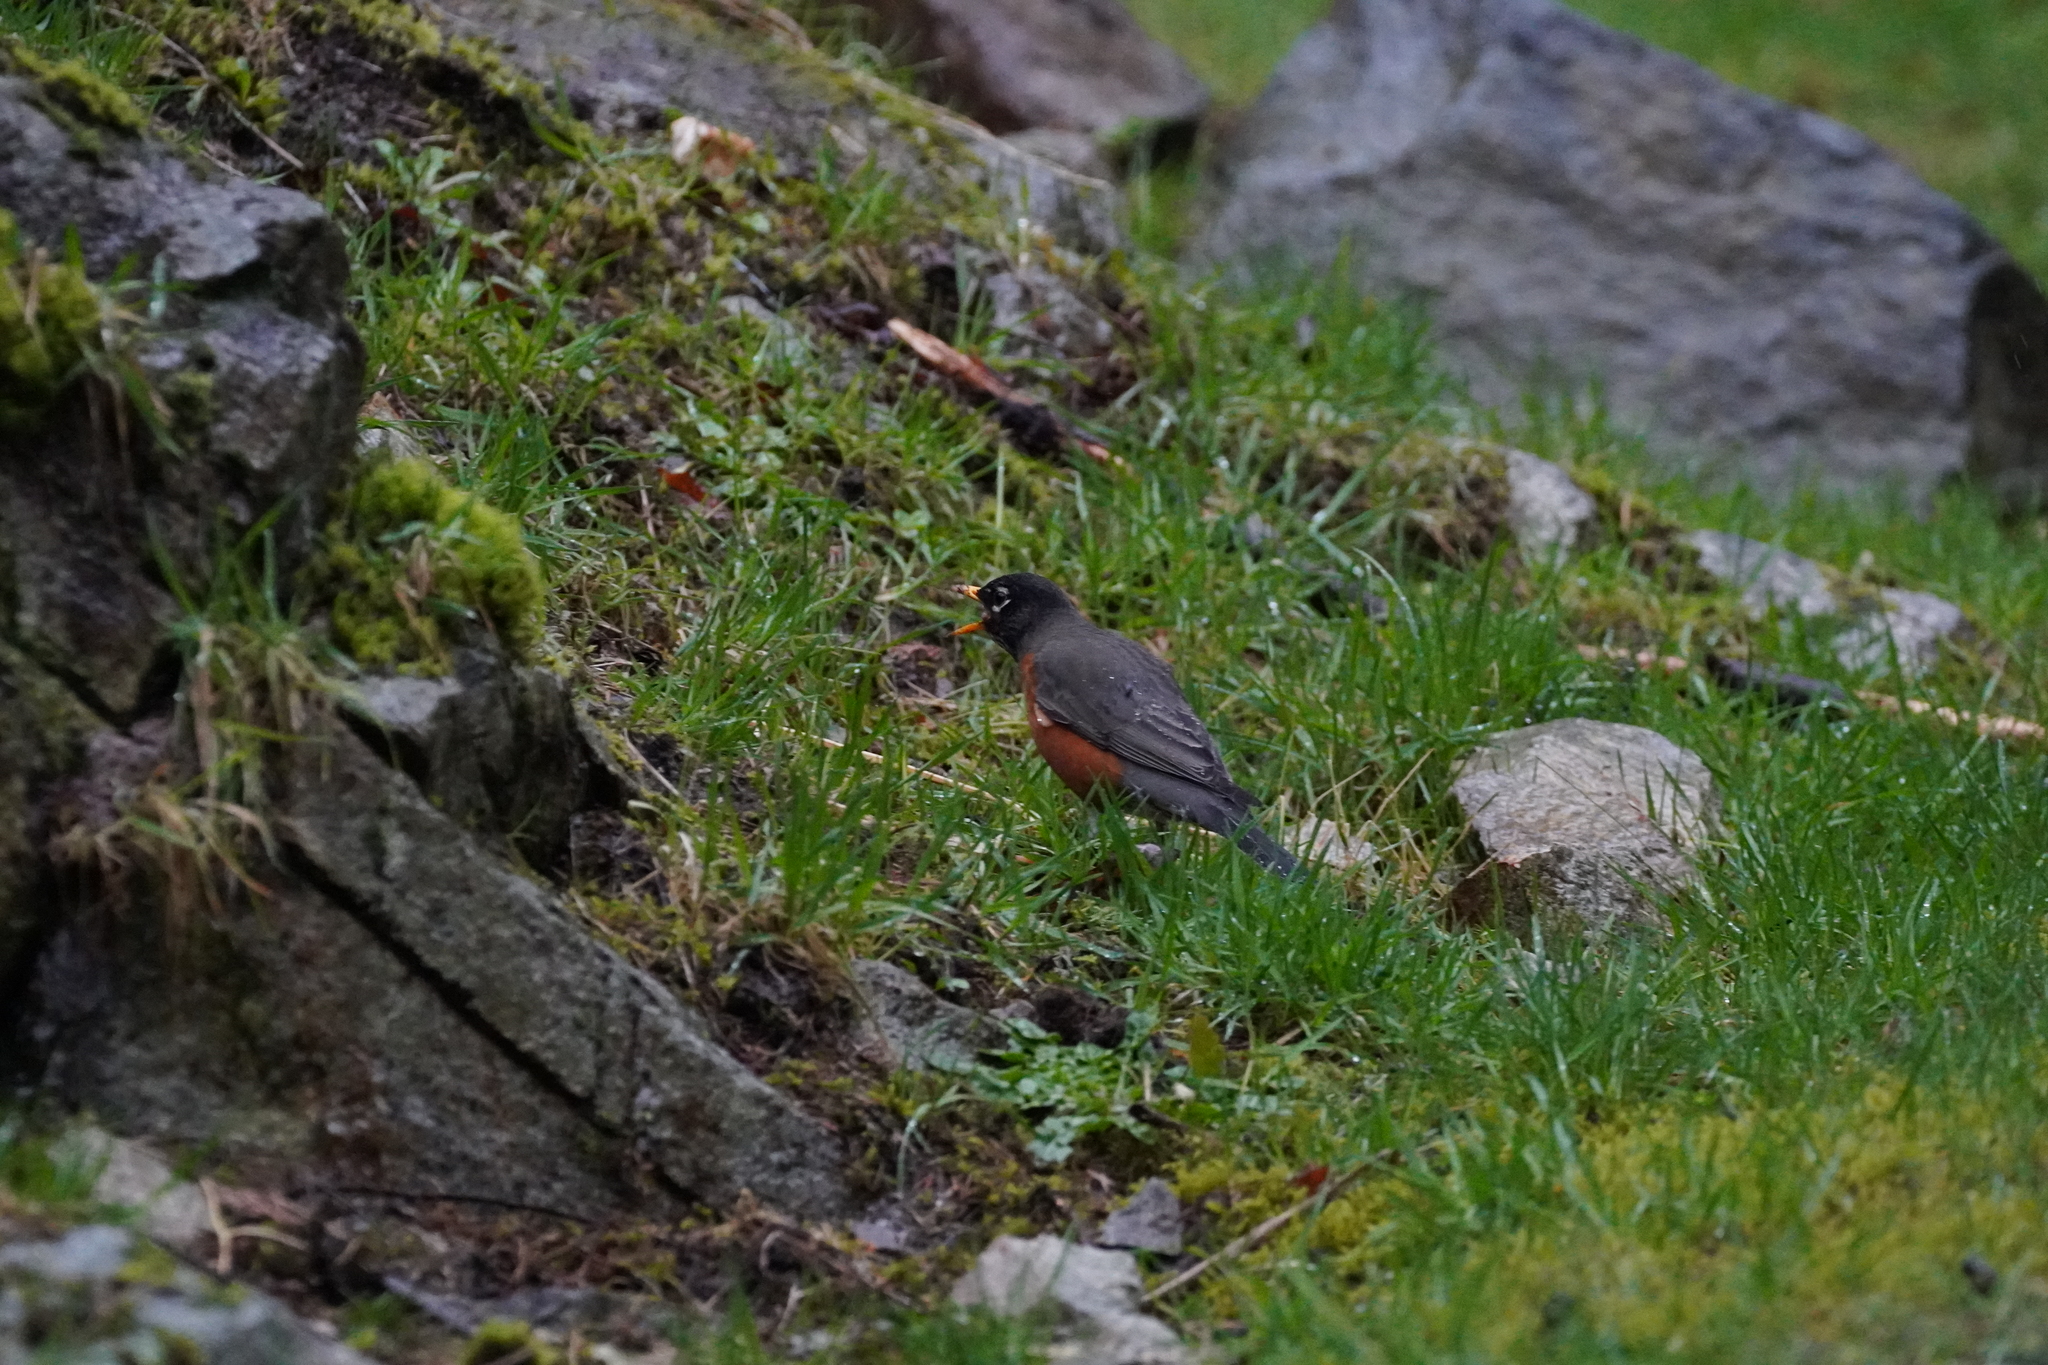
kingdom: Animalia
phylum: Chordata
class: Aves
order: Passeriformes
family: Turdidae
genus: Turdus
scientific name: Turdus migratorius
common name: American robin
